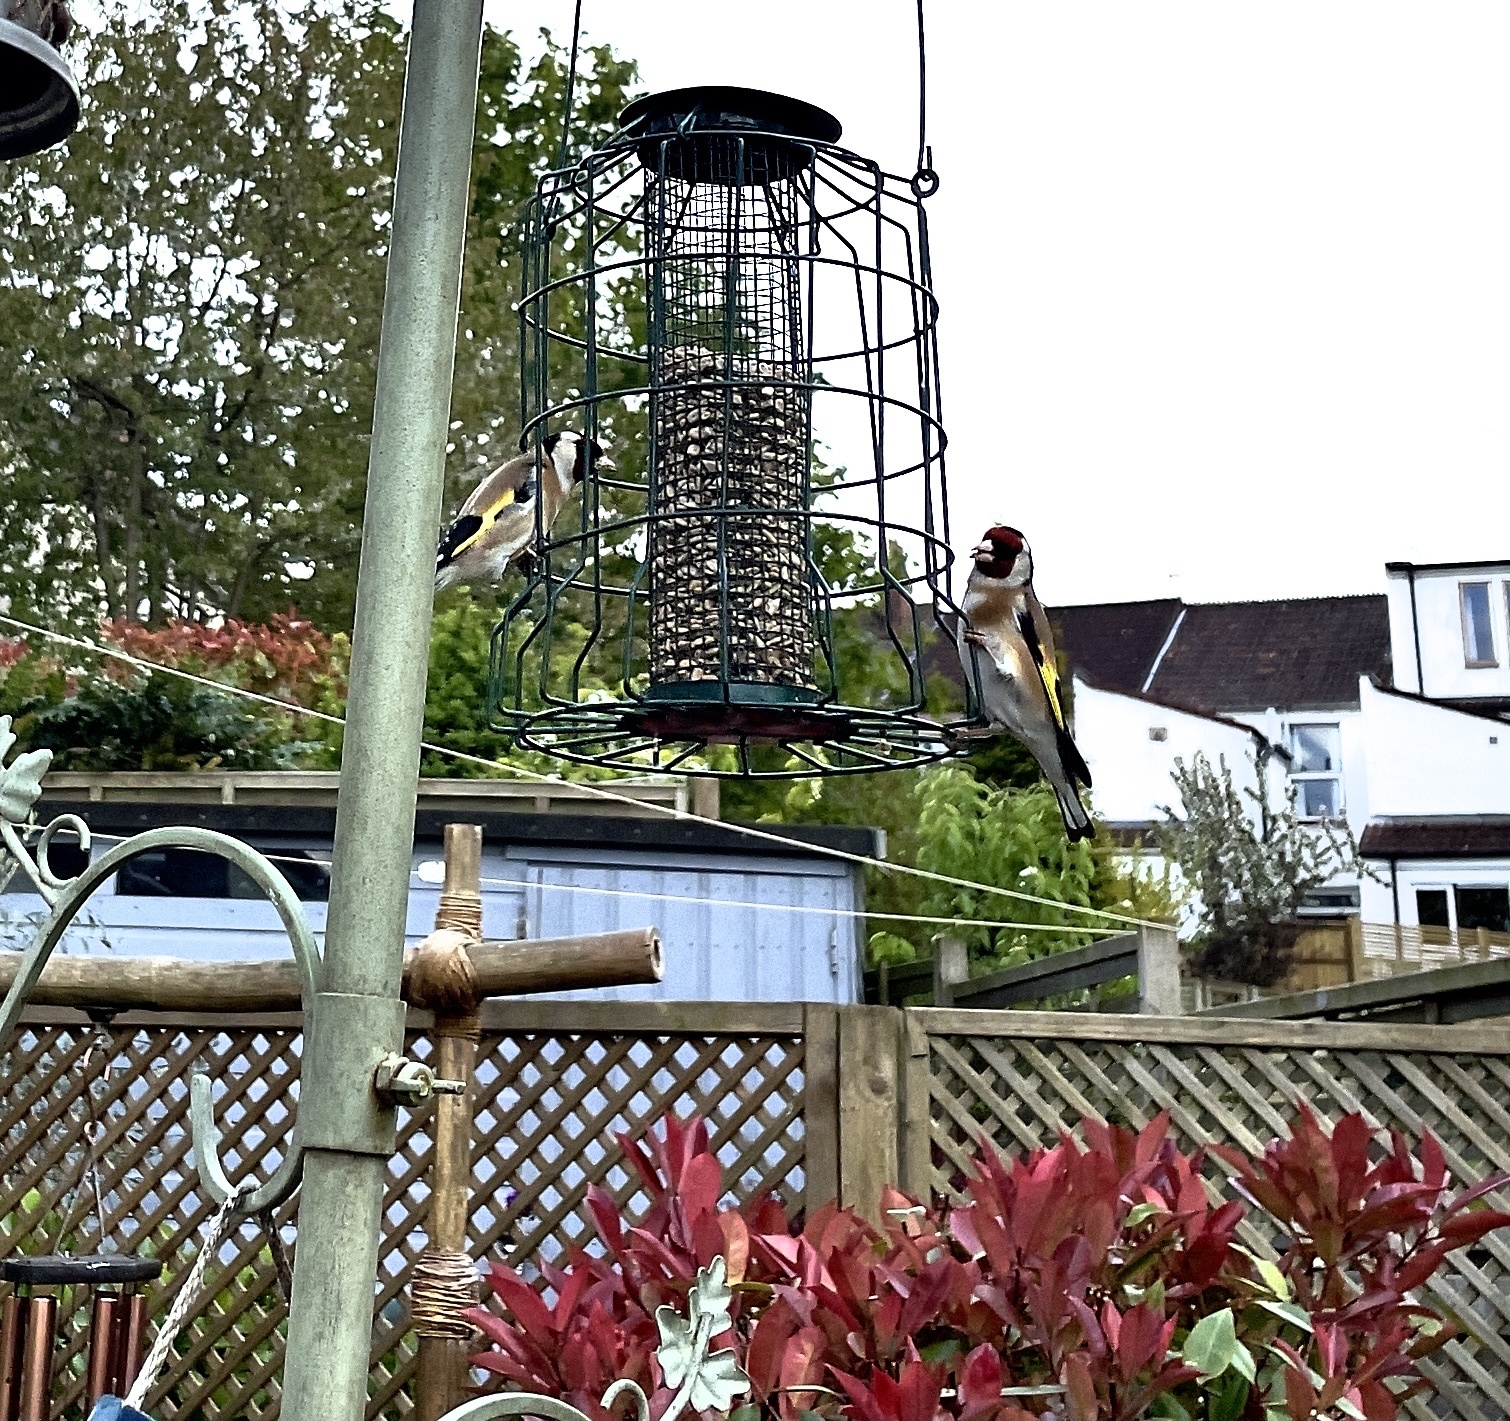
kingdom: Animalia
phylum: Chordata
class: Aves
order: Passeriformes
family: Fringillidae
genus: Carduelis
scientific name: Carduelis carduelis
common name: European goldfinch
